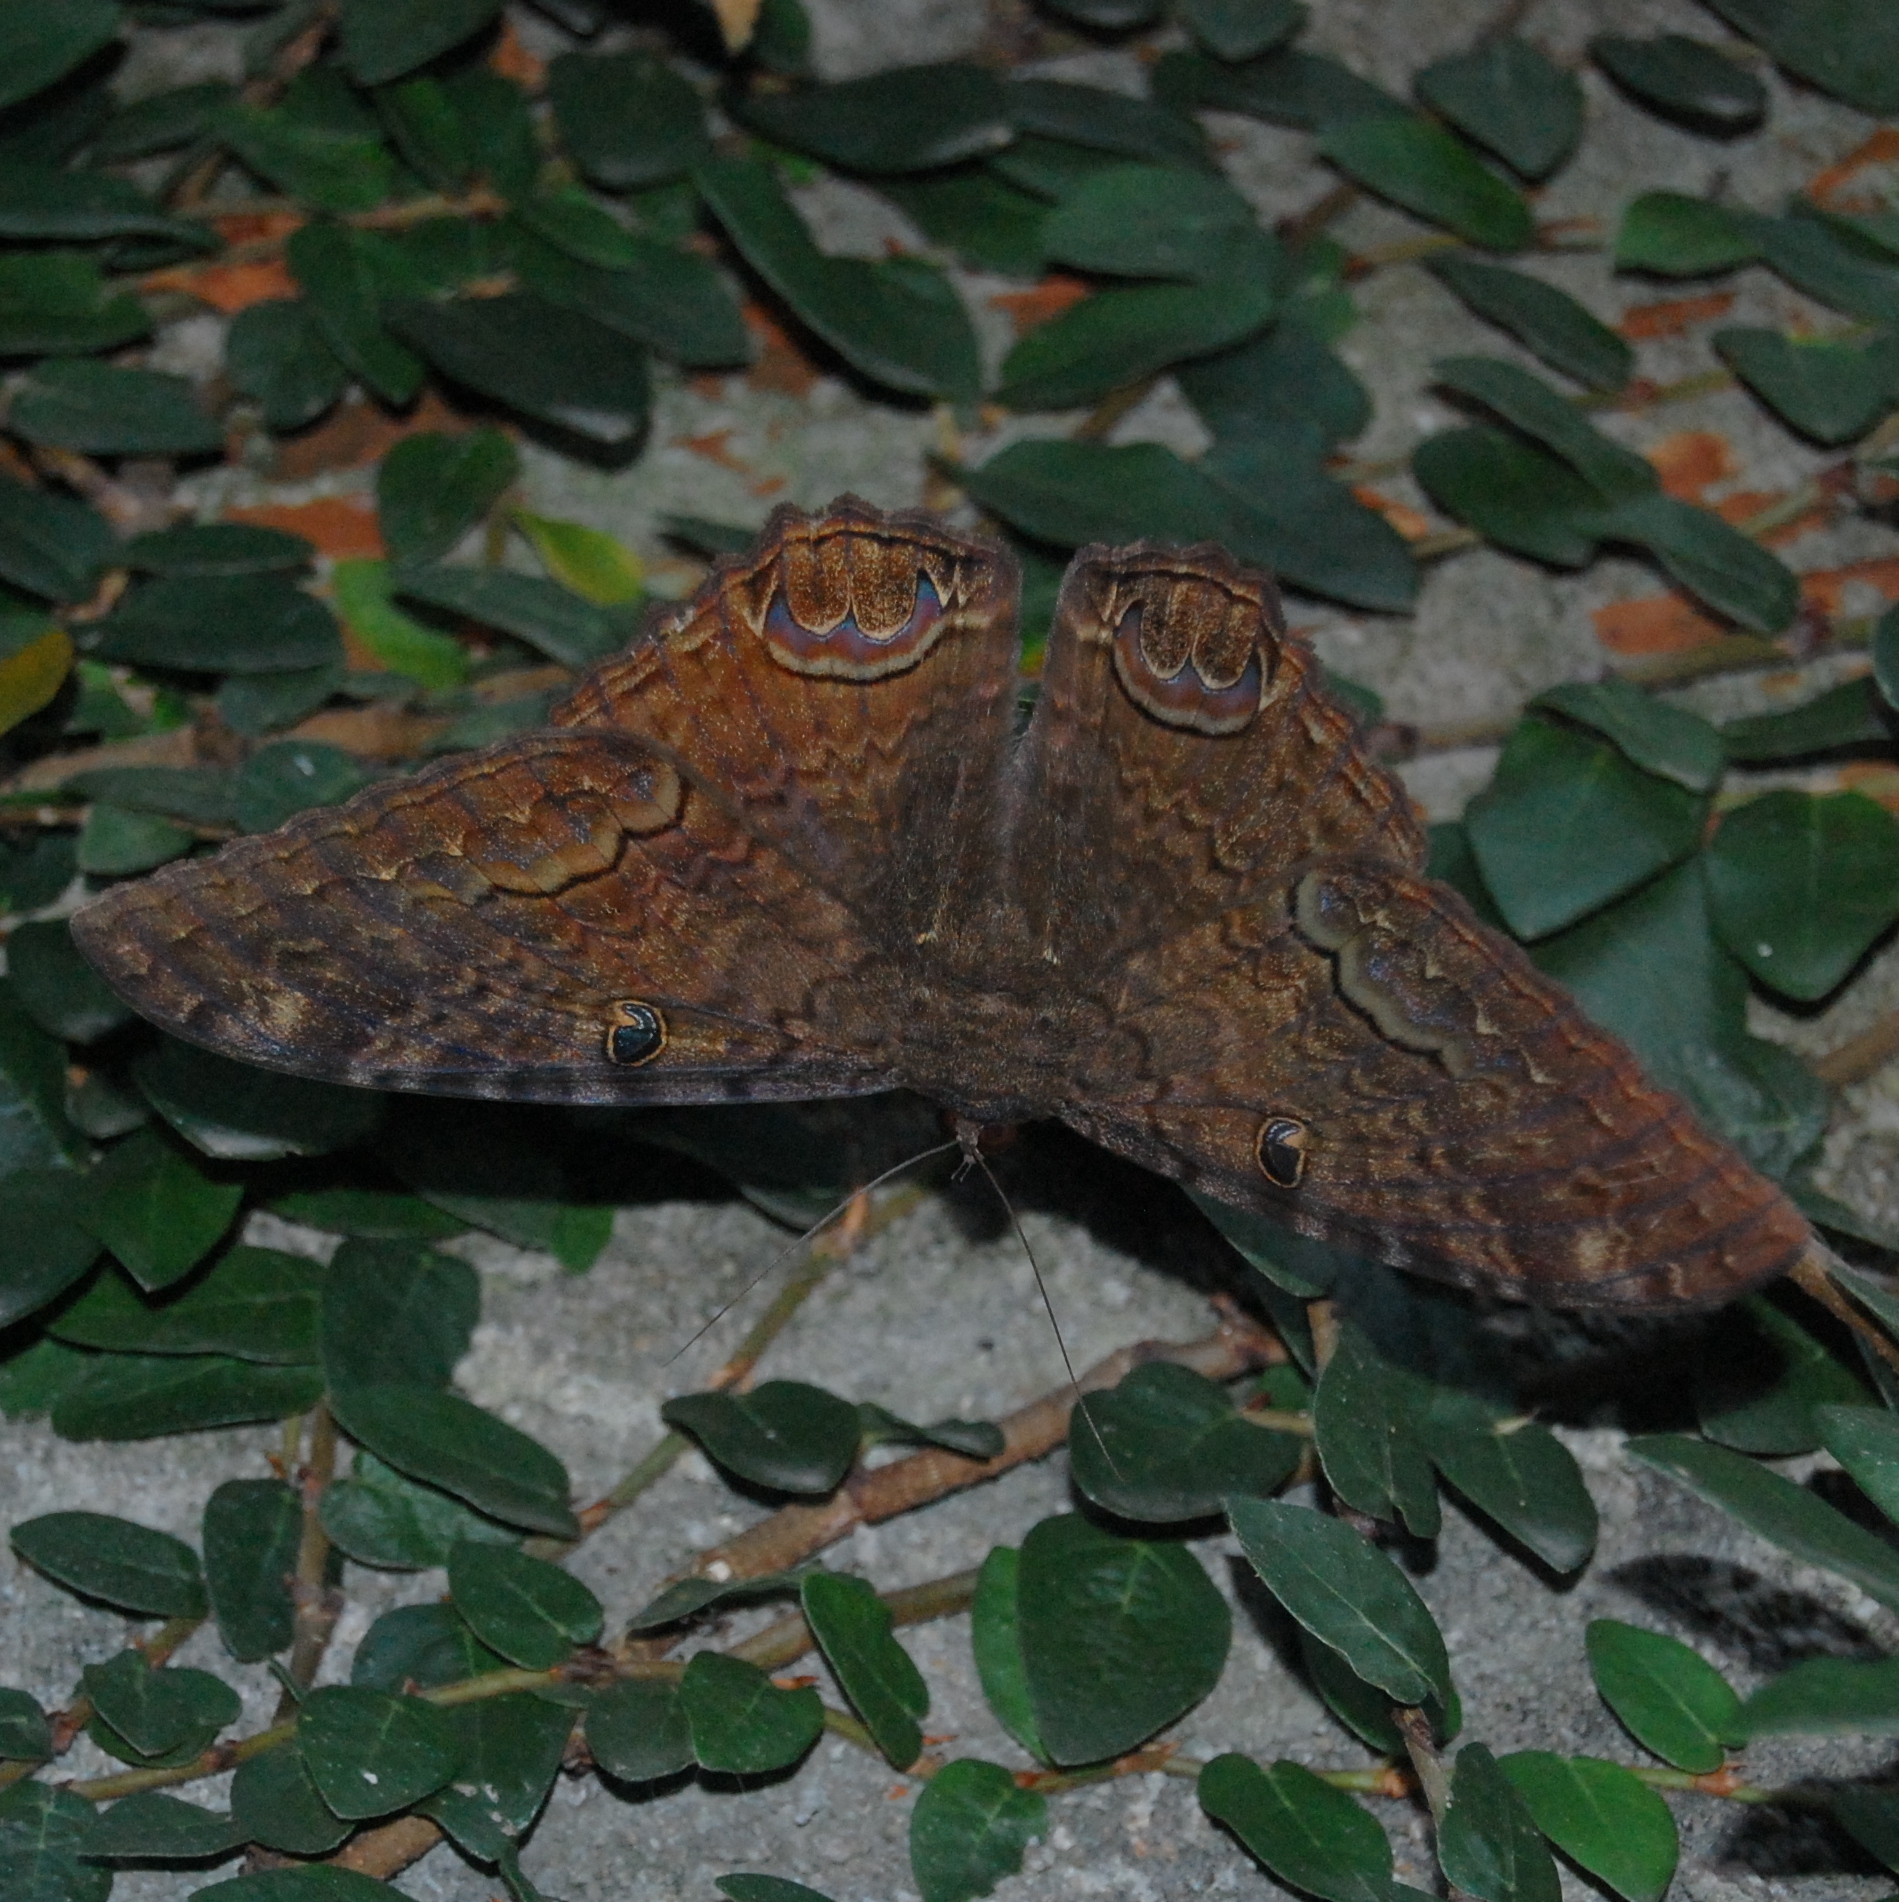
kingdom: Animalia
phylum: Arthropoda
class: Insecta
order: Lepidoptera
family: Erebidae
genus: Ascalapha
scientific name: Ascalapha odorata
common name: Black witch
